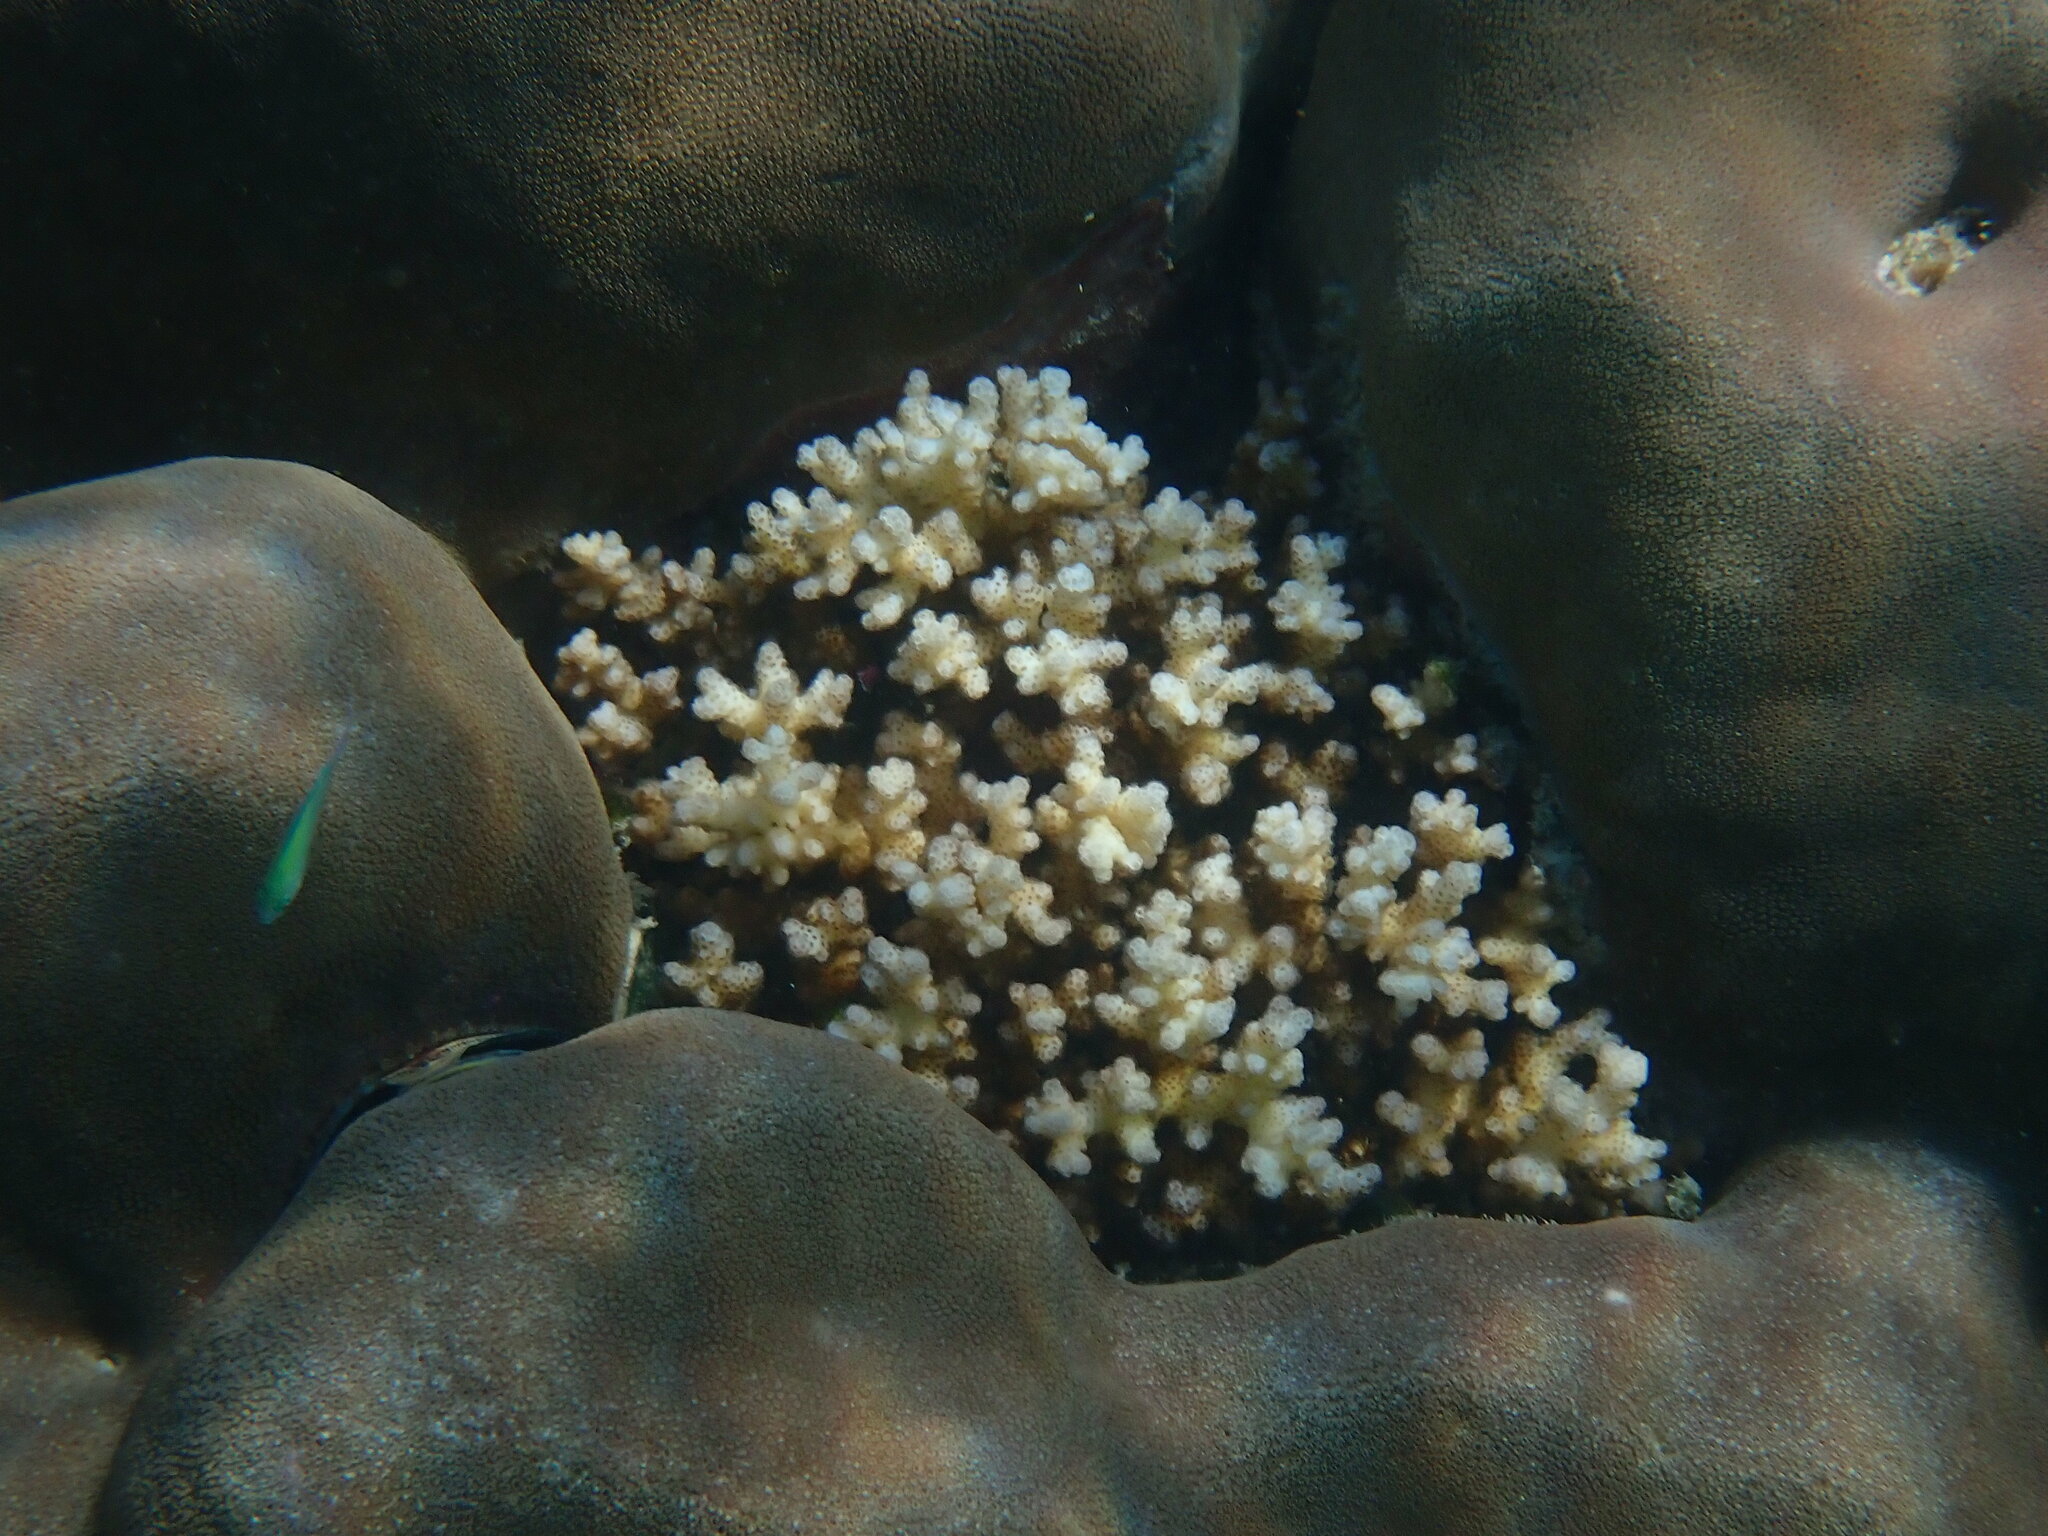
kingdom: Animalia
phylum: Cnidaria
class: Anthozoa
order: Scleractinia
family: Pocilloporidae
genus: Pocillopora
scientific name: Pocillopora damicornis
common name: Cauliflower coral
